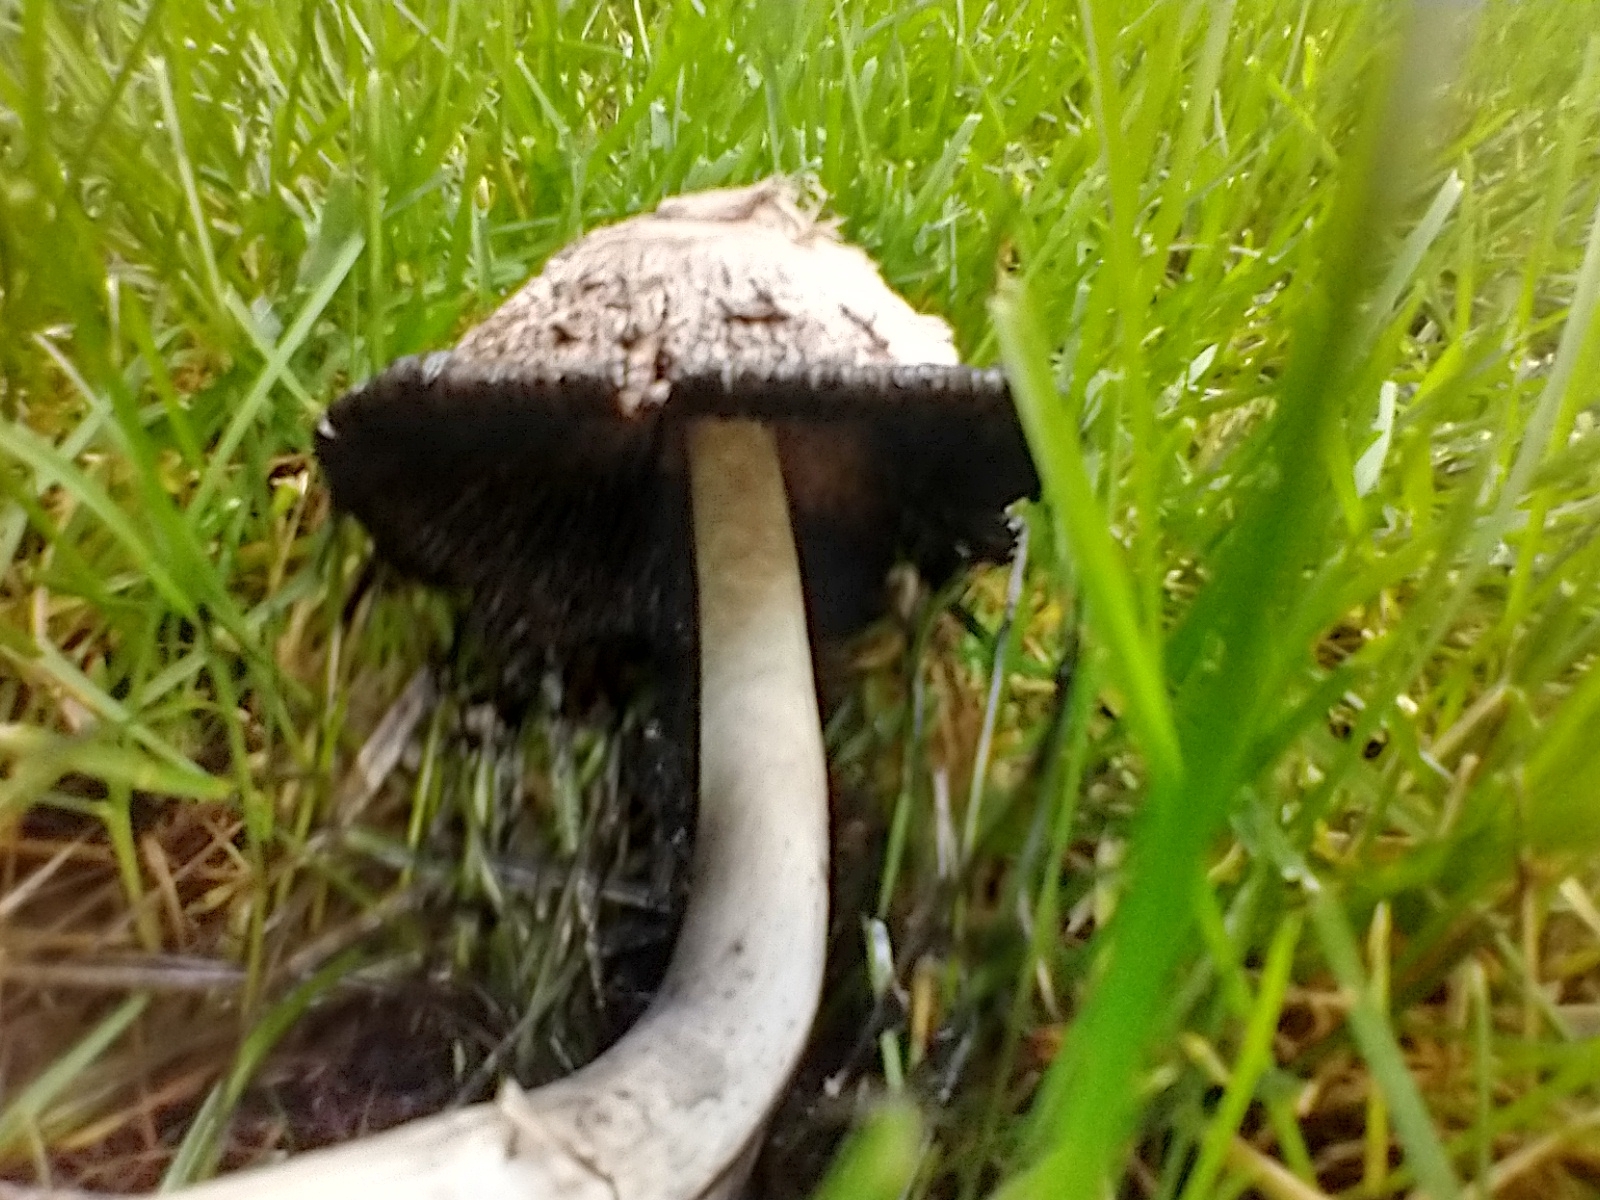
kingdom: Fungi
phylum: Basidiomycota
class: Agaricomycetes
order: Agaricales
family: Agaricaceae
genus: Coprinus
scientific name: Coprinus comatus
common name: Lawyer's wig
